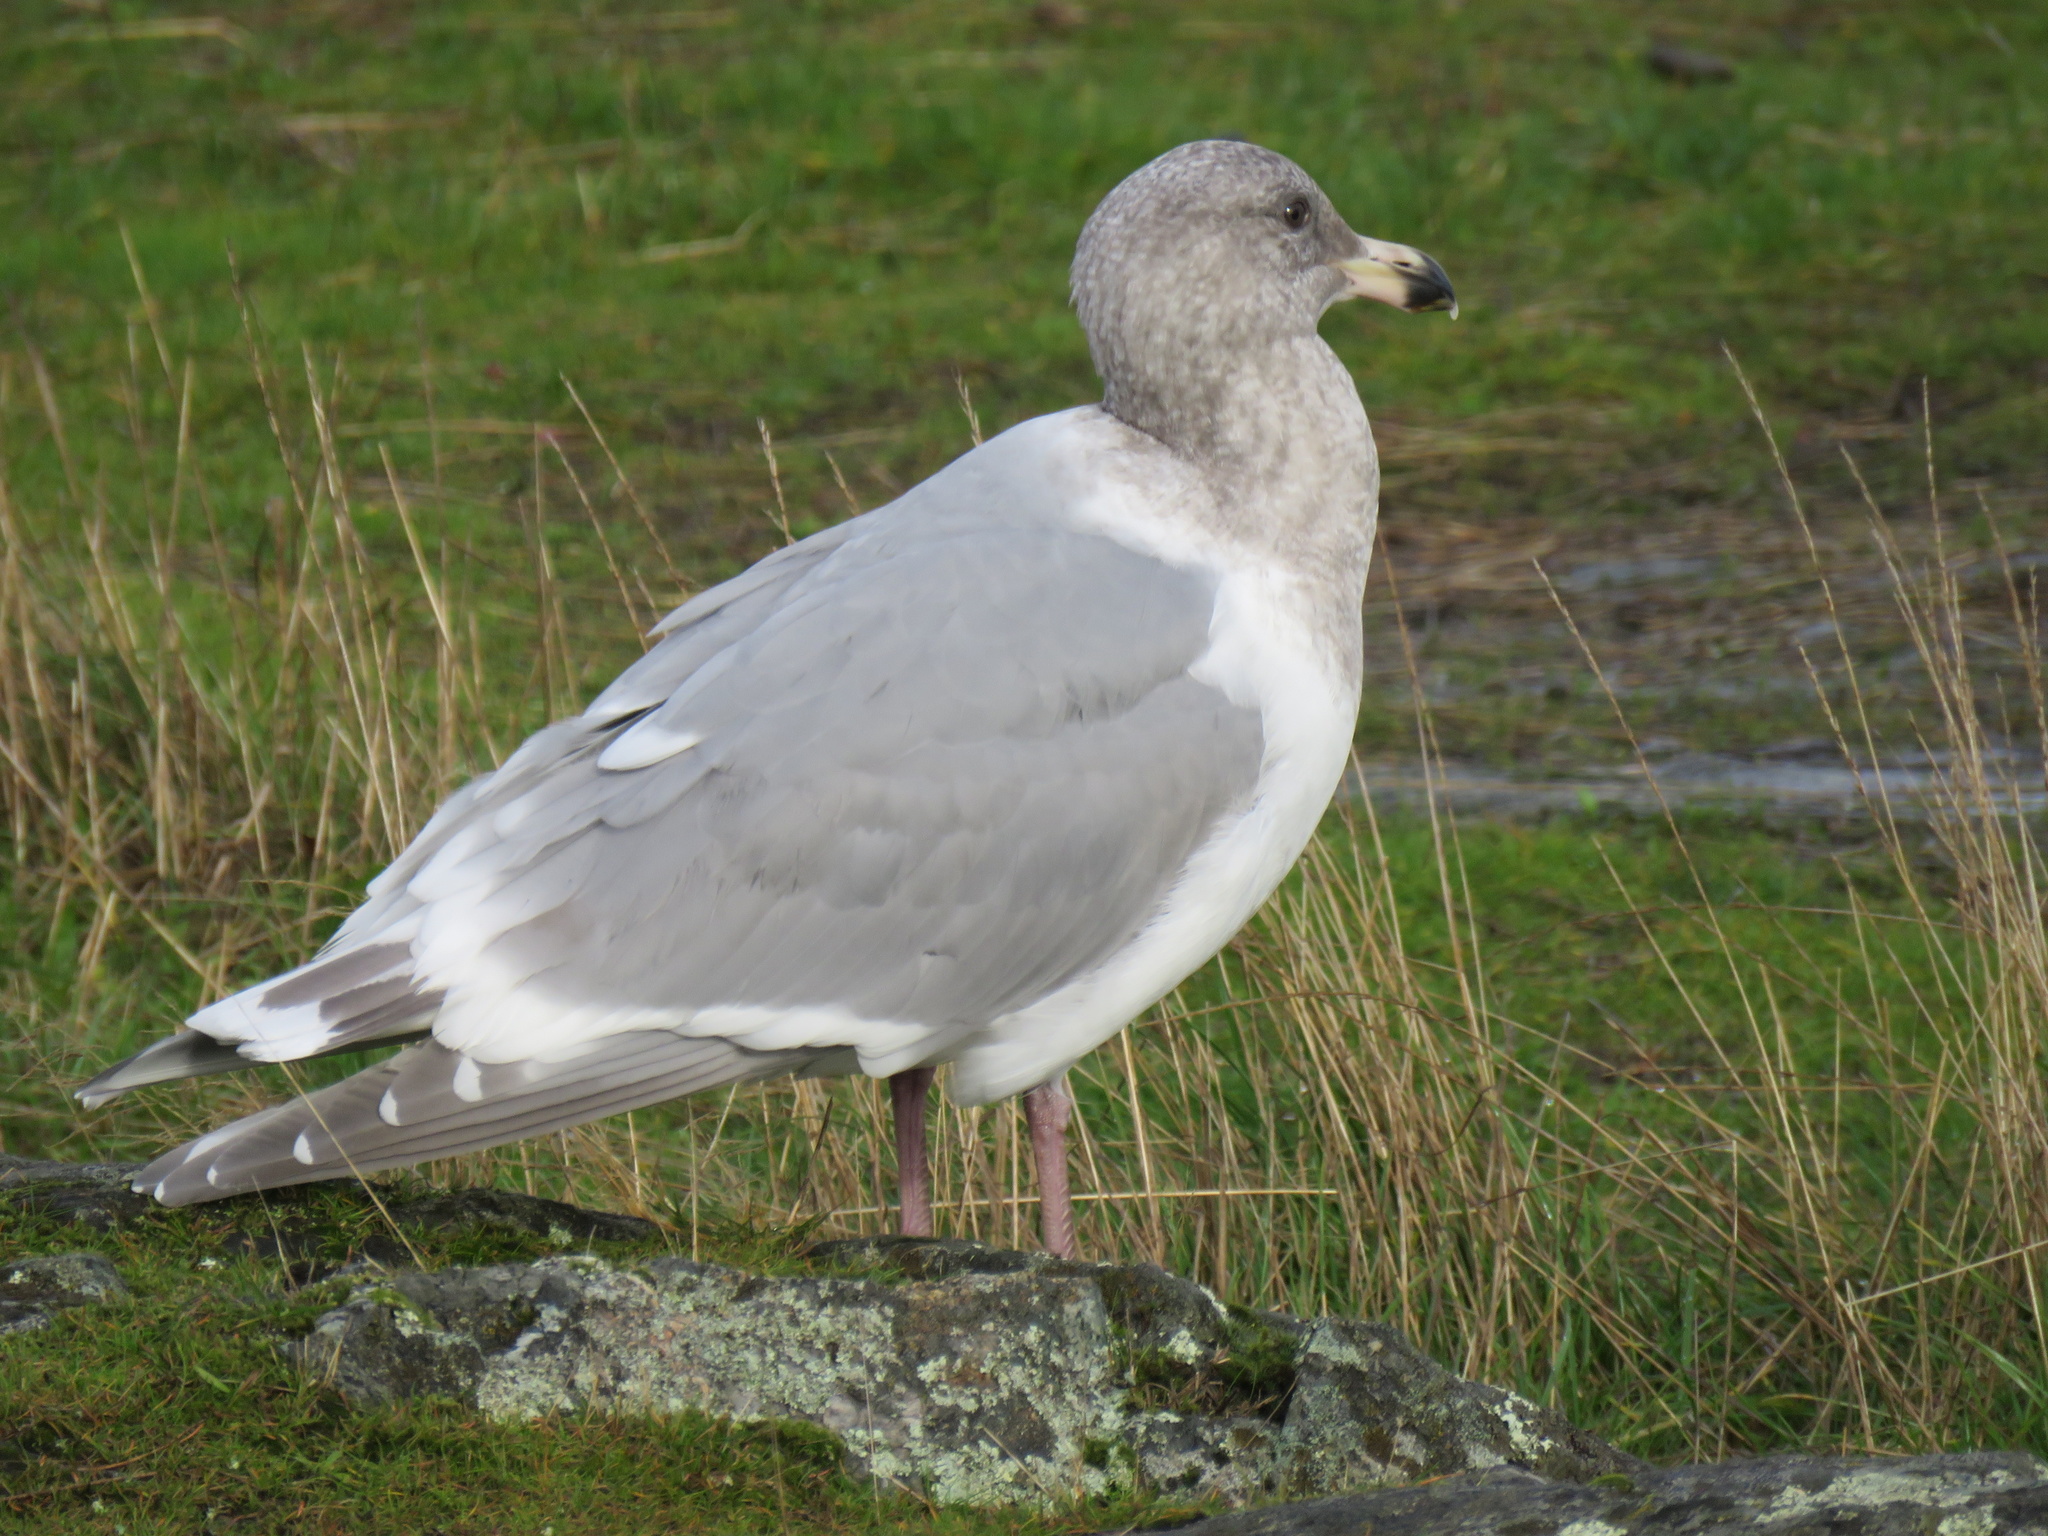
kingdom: Animalia
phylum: Chordata
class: Aves
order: Charadriiformes
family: Laridae
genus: Larus
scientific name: Larus
